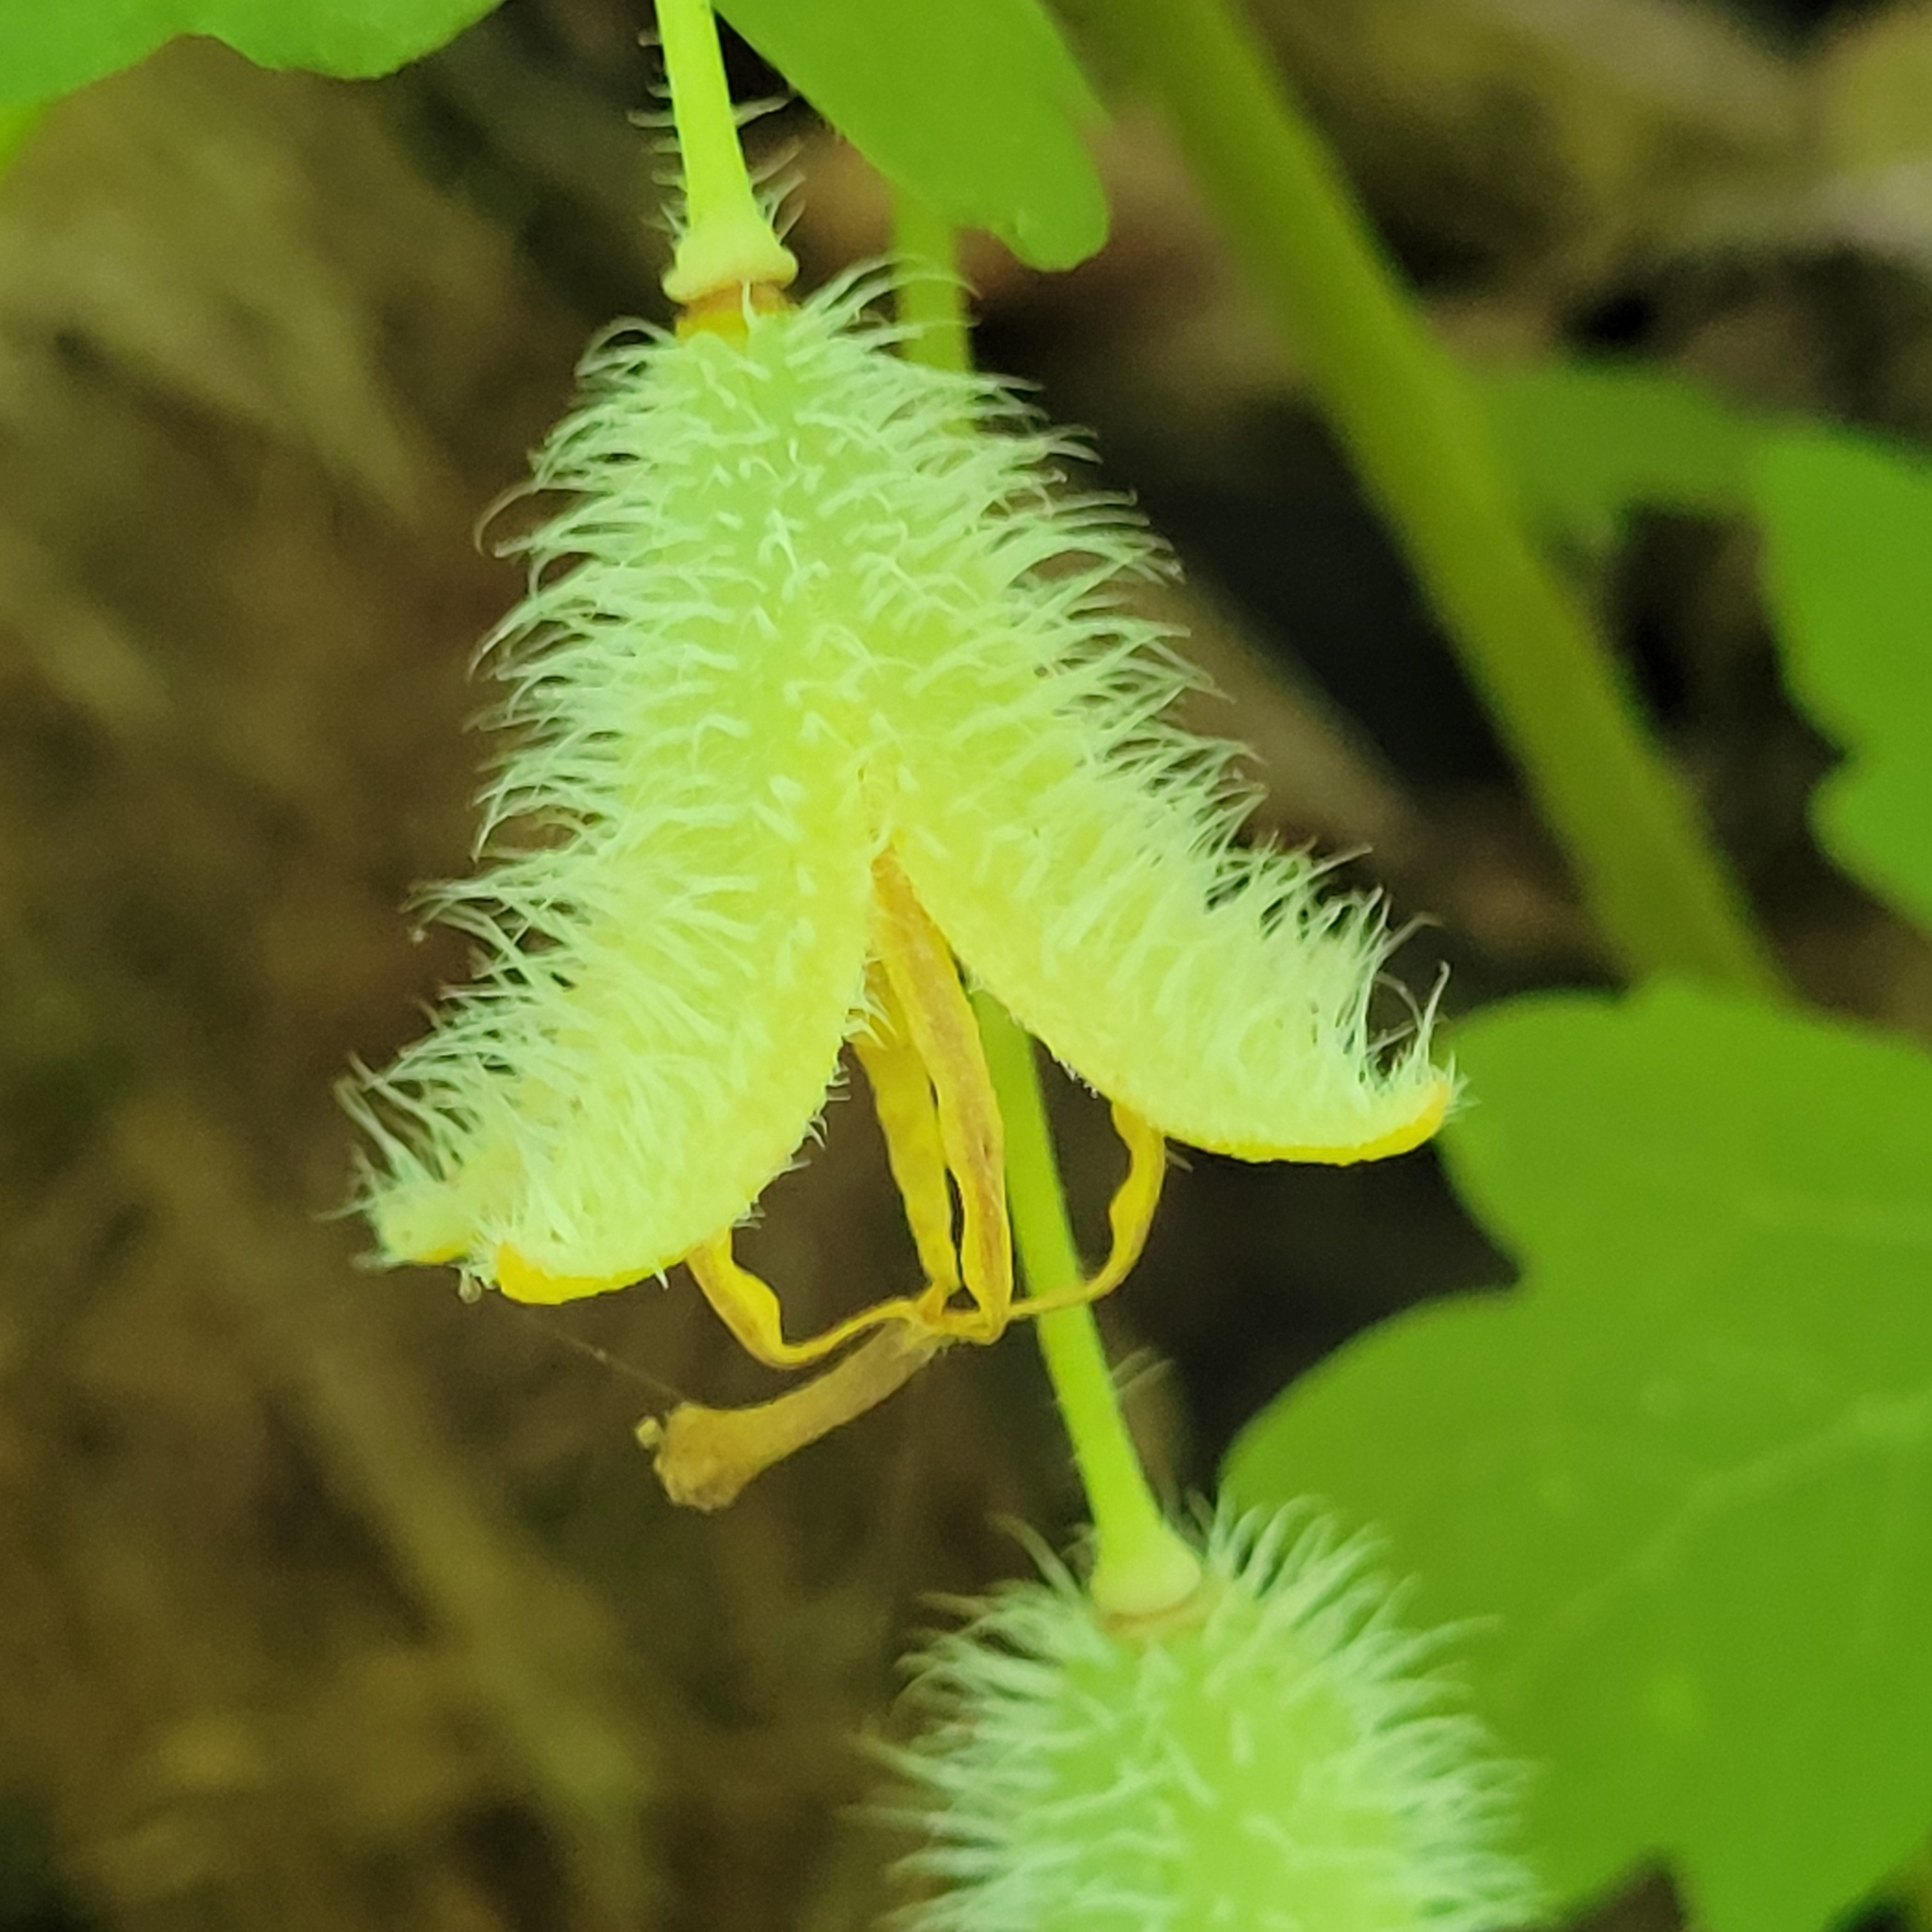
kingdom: Plantae
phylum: Tracheophyta
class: Magnoliopsida
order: Ranunculales
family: Papaveraceae
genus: Stylophorum
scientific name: Stylophorum diphyllum
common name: Celandine poppy
